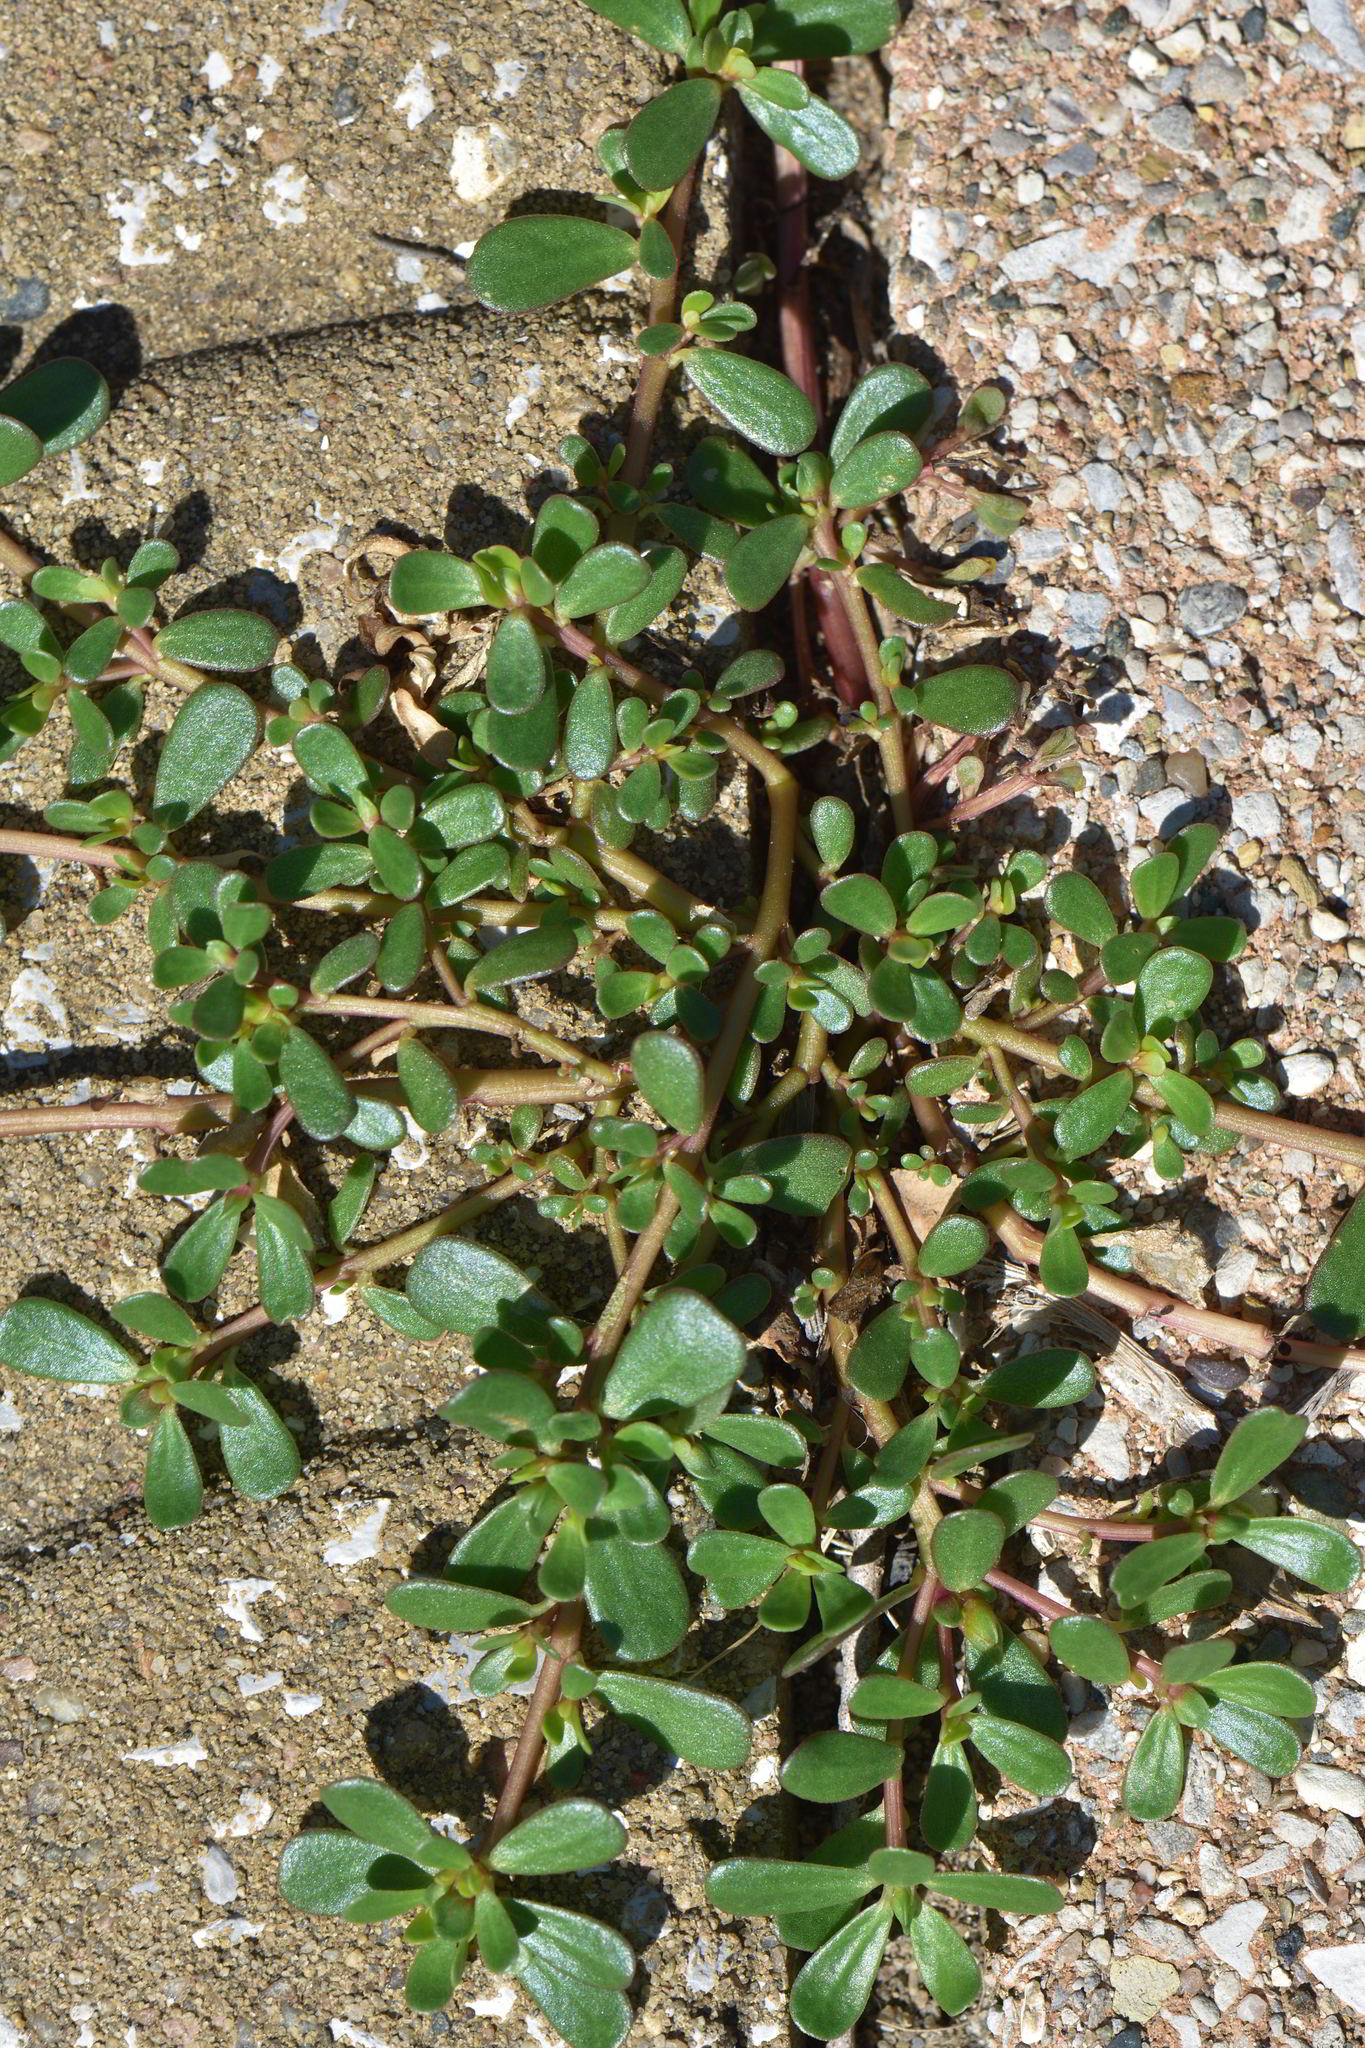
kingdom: Plantae
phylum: Tracheophyta
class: Magnoliopsida
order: Caryophyllales
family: Portulacaceae
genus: Portulaca
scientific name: Portulaca oleracea
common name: Common purslane
